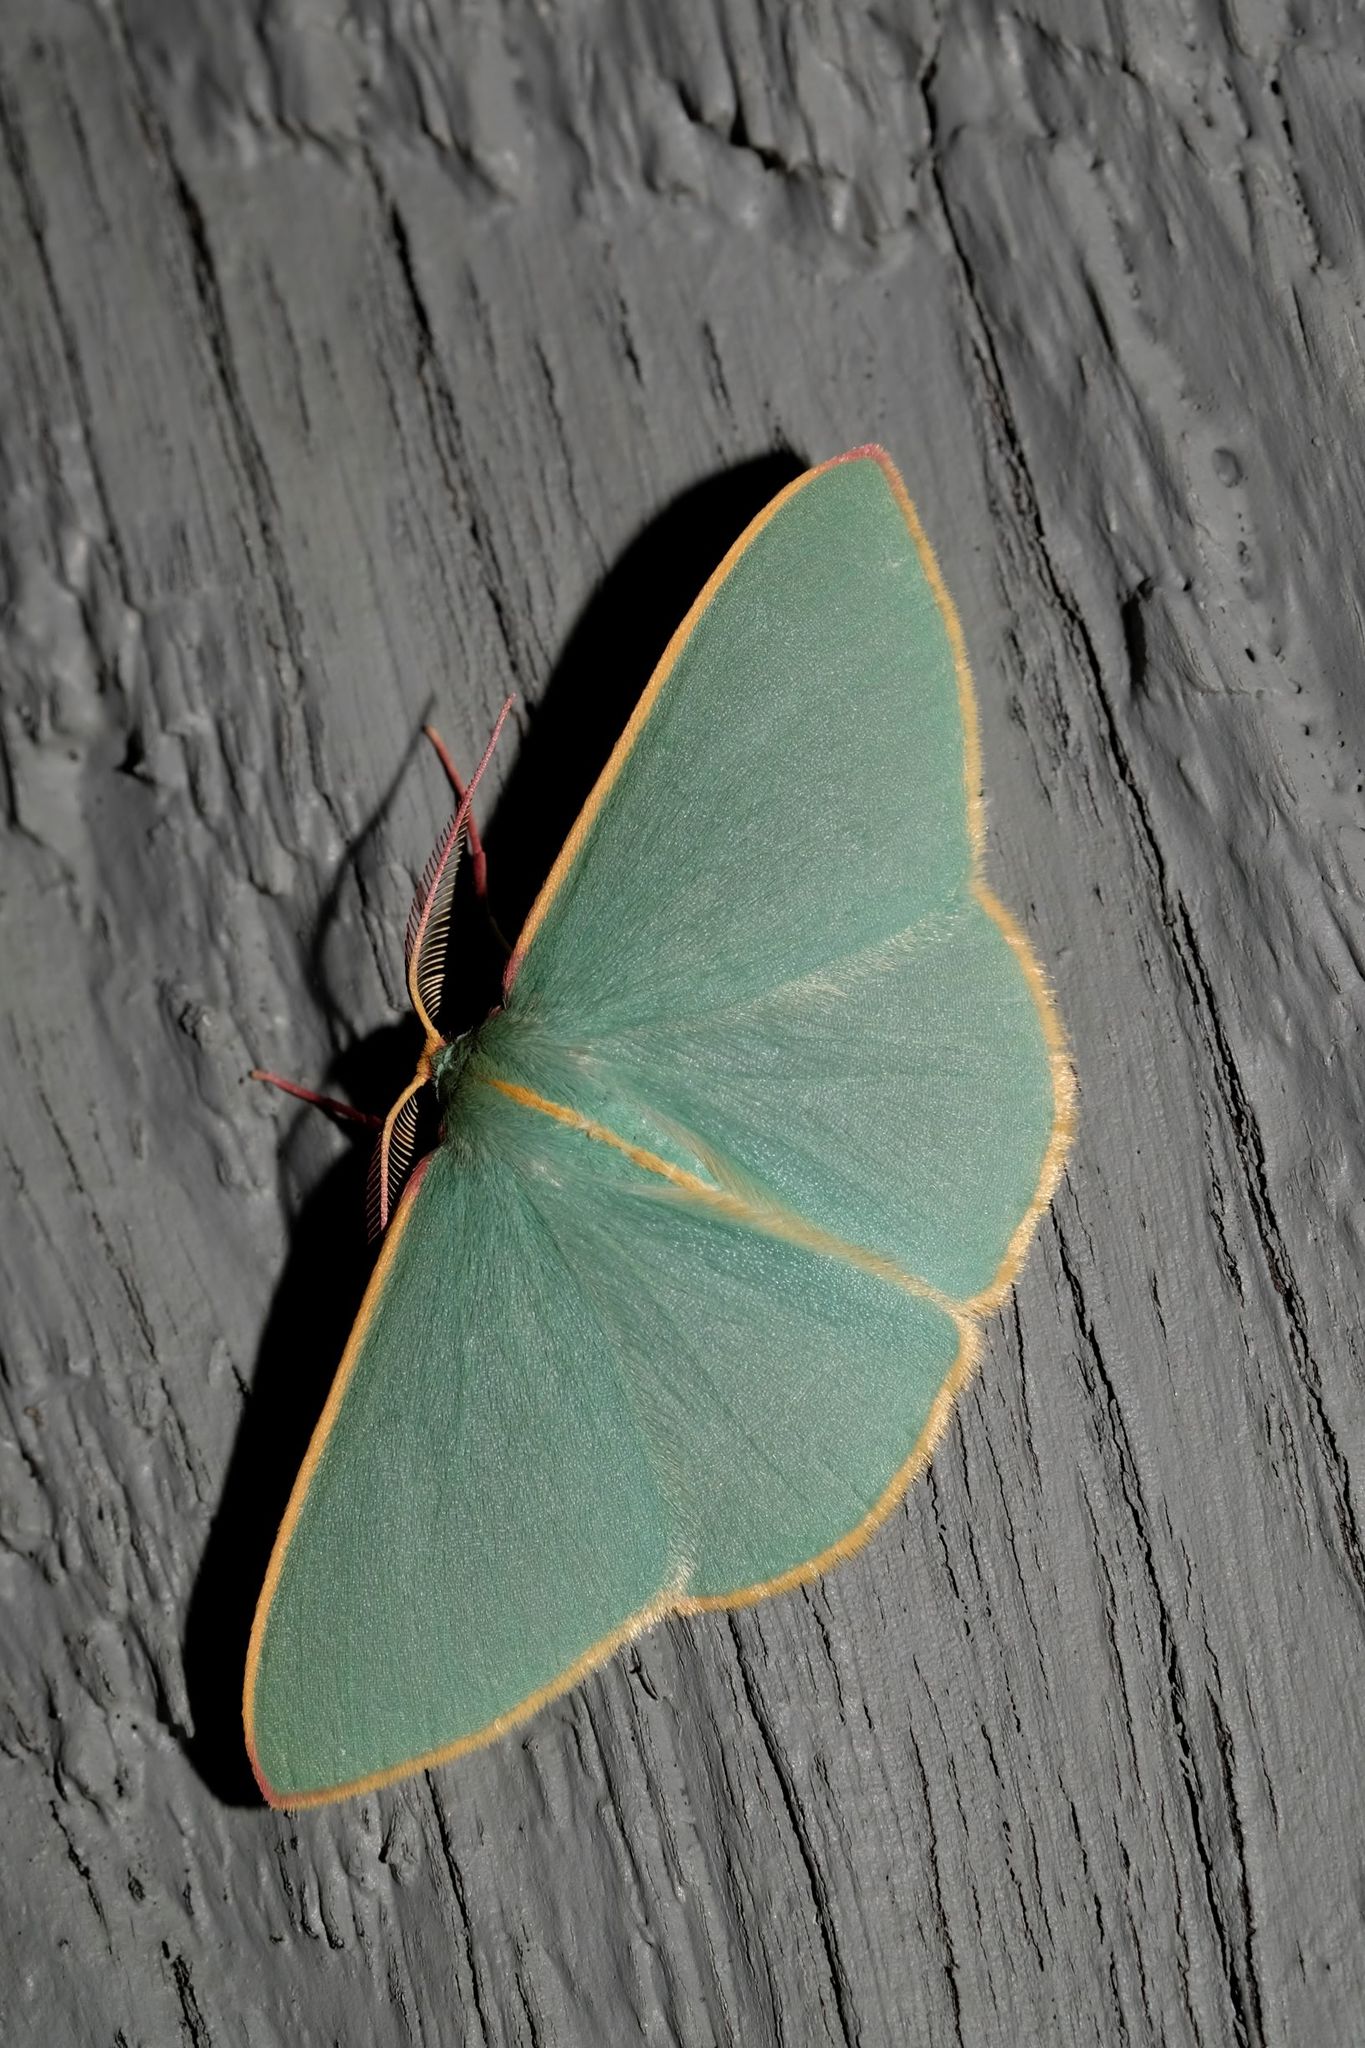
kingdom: Animalia
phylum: Arthropoda
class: Insecta
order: Lepidoptera
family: Geometridae
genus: Chlorocoma
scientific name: Chlorocoma assimilis
